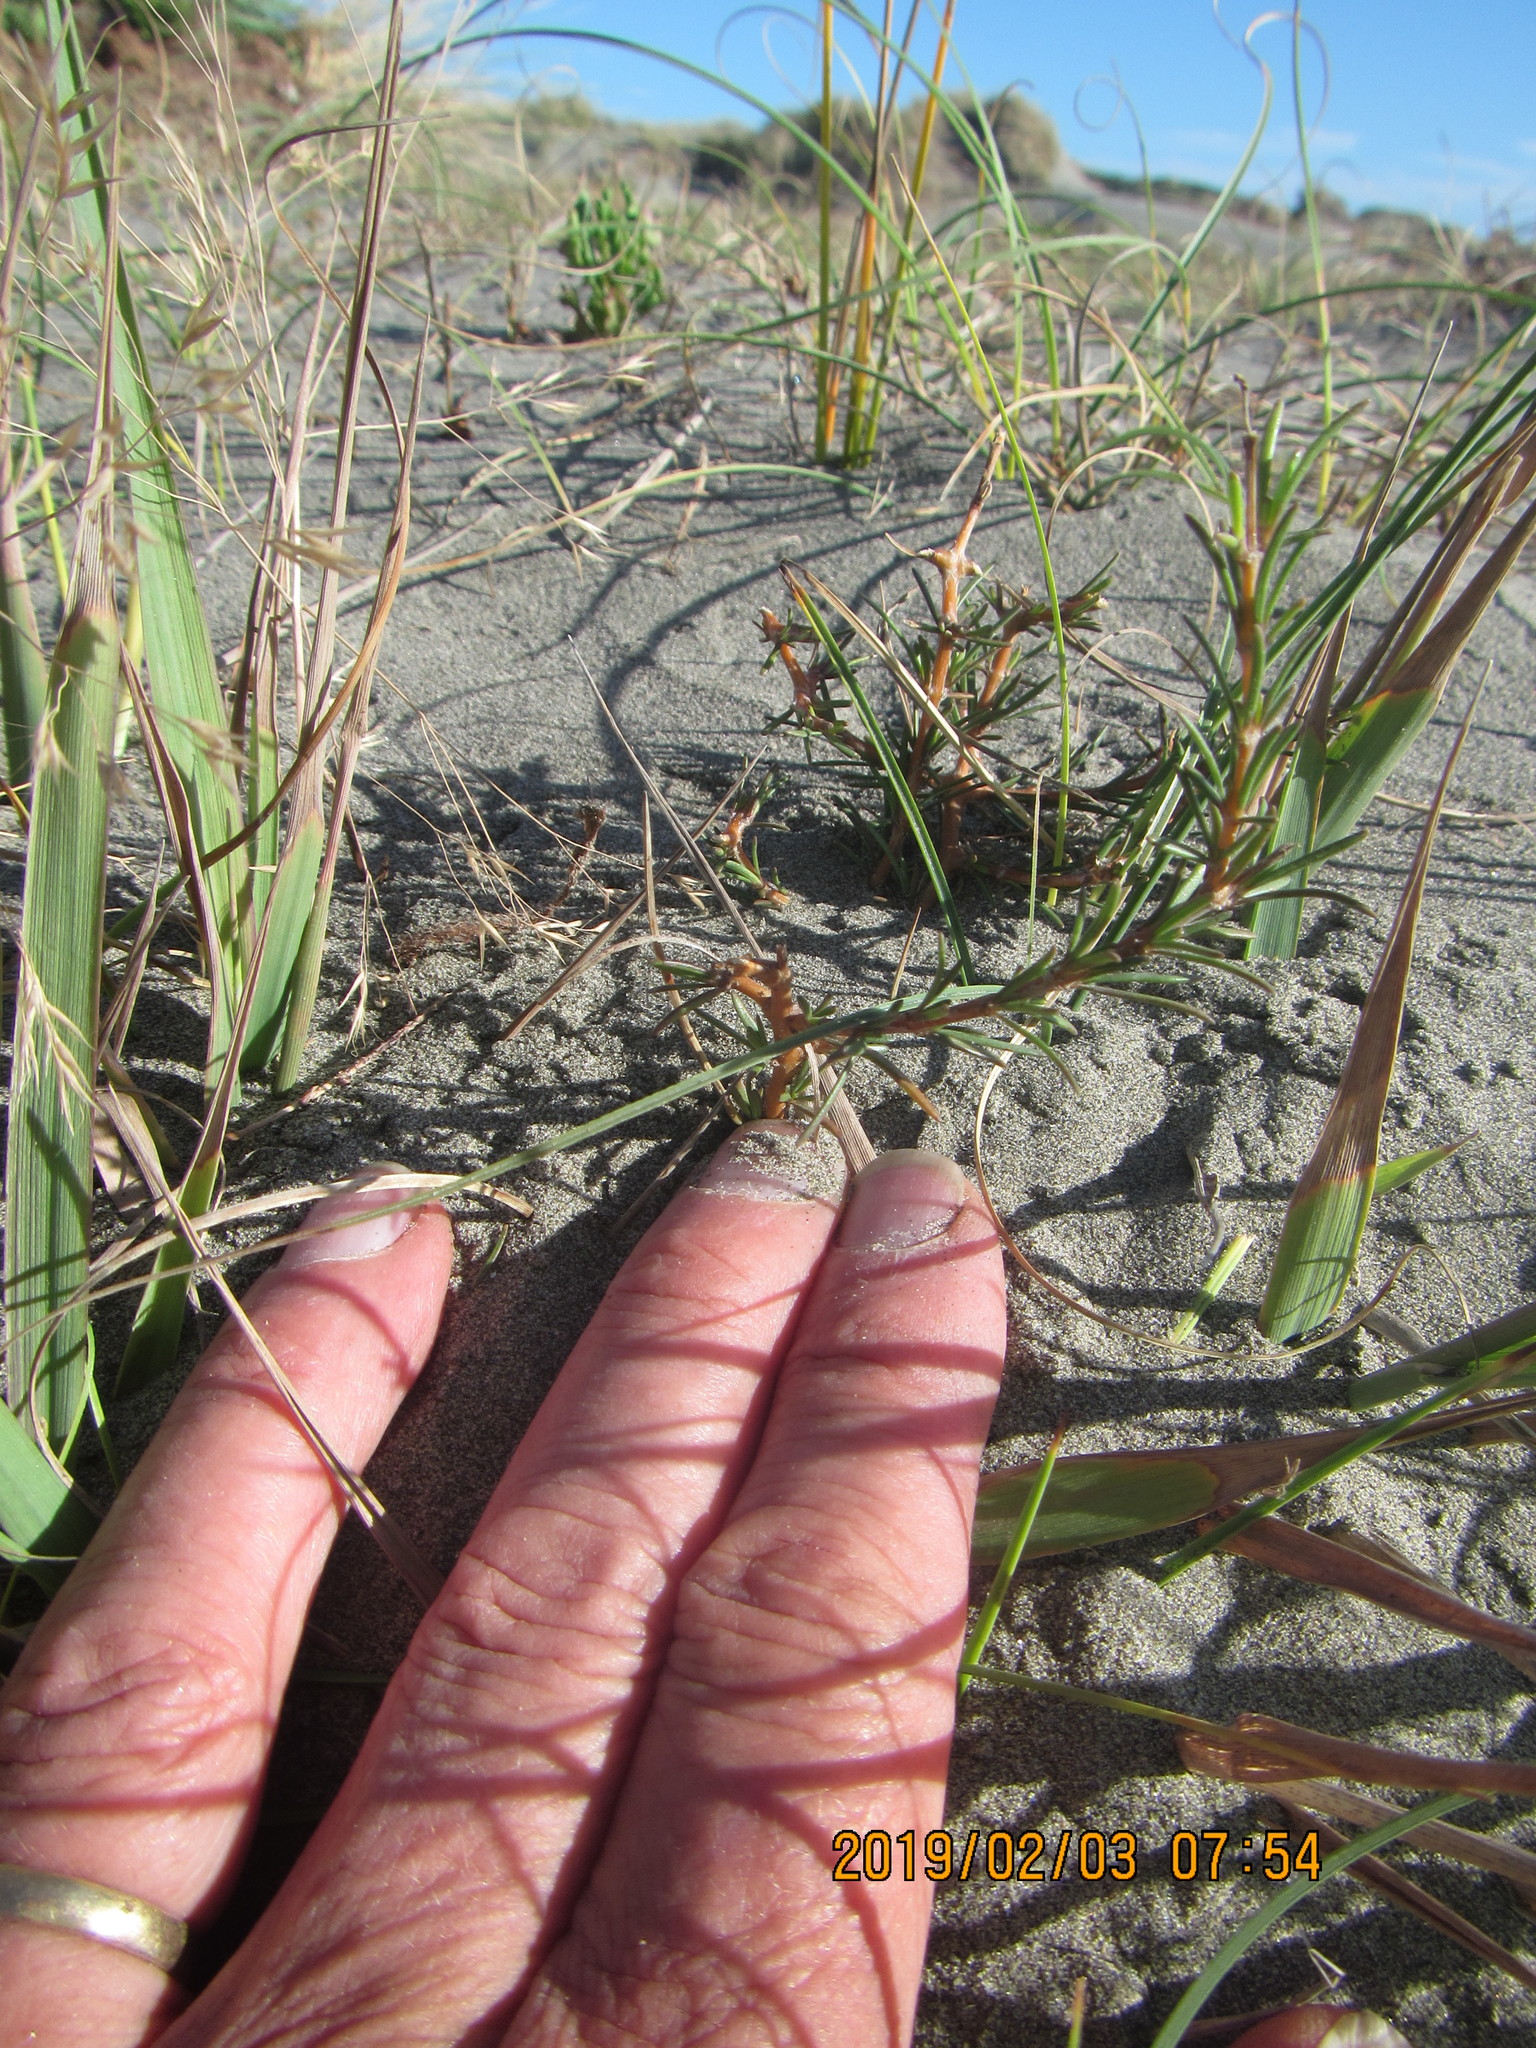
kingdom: Plantae
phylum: Tracheophyta
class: Magnoliopsida
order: Gentianales
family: Rubiaceae
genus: Coprosma
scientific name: Coprosma acerosa
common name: Sand coprosma
